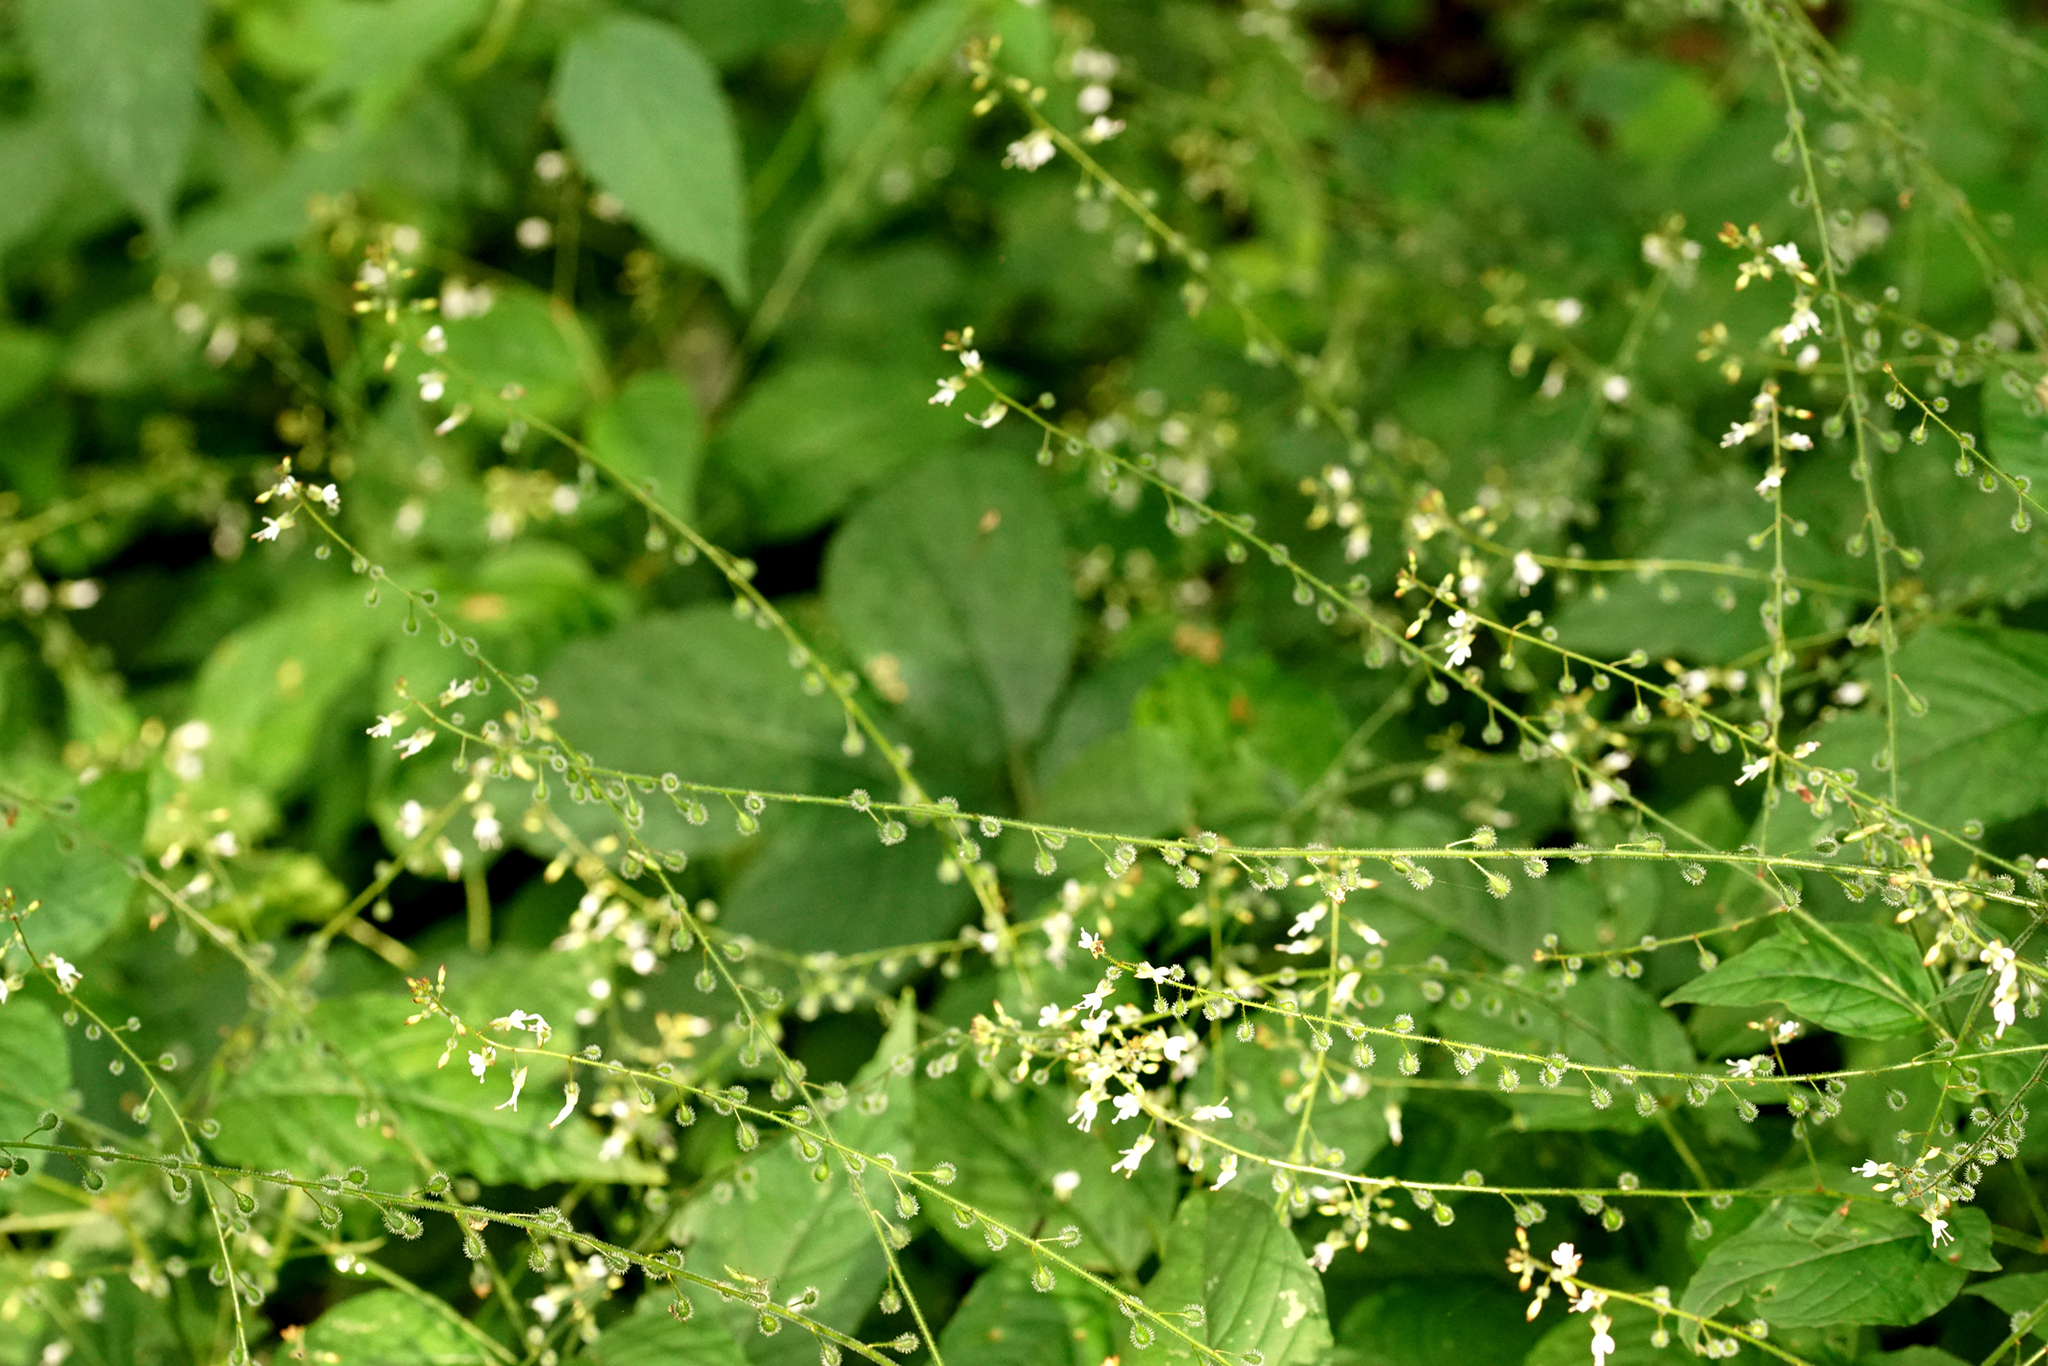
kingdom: Plantae
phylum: Tracheophyta
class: Magnoliopsida
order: Myrtales
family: Onagraceae
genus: Circaea
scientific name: Circaea lutetiana
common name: Enchanter's-nightshade
